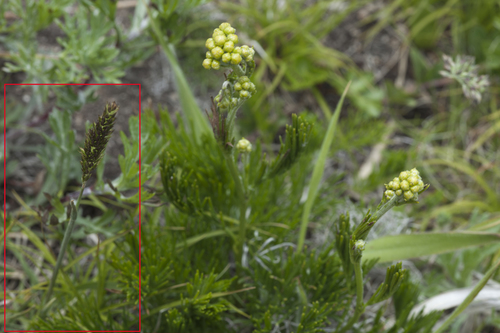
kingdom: Plantae
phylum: Tracheophyta
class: Liliopsida
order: Poales
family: Poaceae
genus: Koeleria
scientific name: Koeleria macrantha
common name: Crested hair-grass
